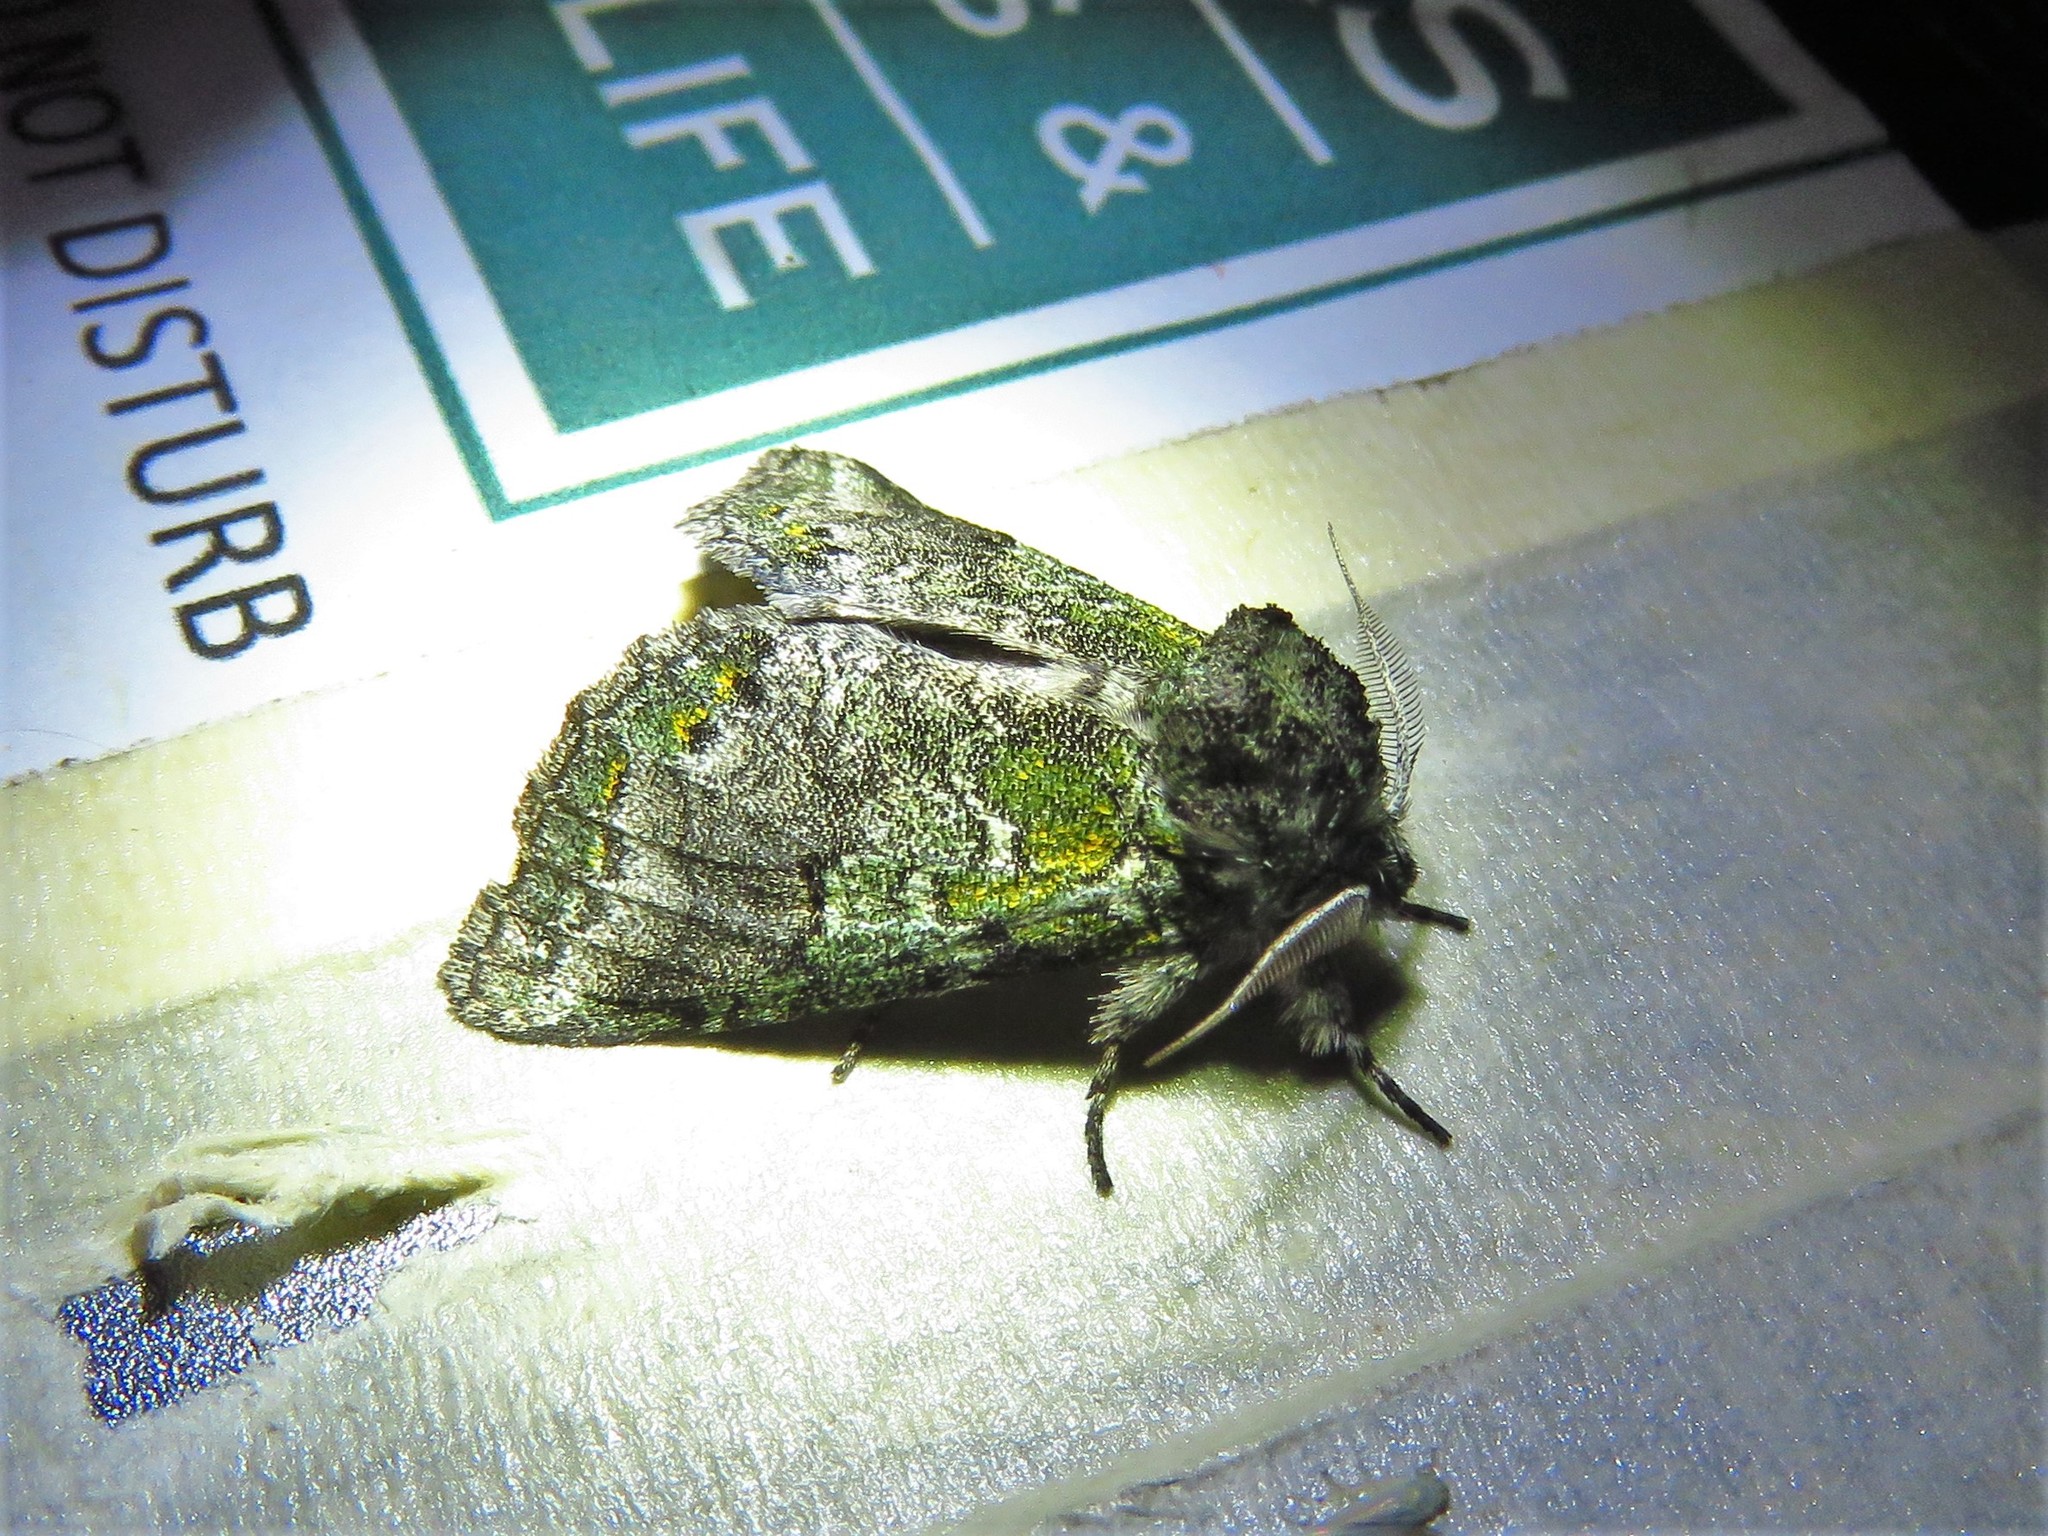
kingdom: Animalia
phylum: Arthropoda
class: Insecta
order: Lepidoptera
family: Notodontidae
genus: Litodonta
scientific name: Litodonta hydromeli
